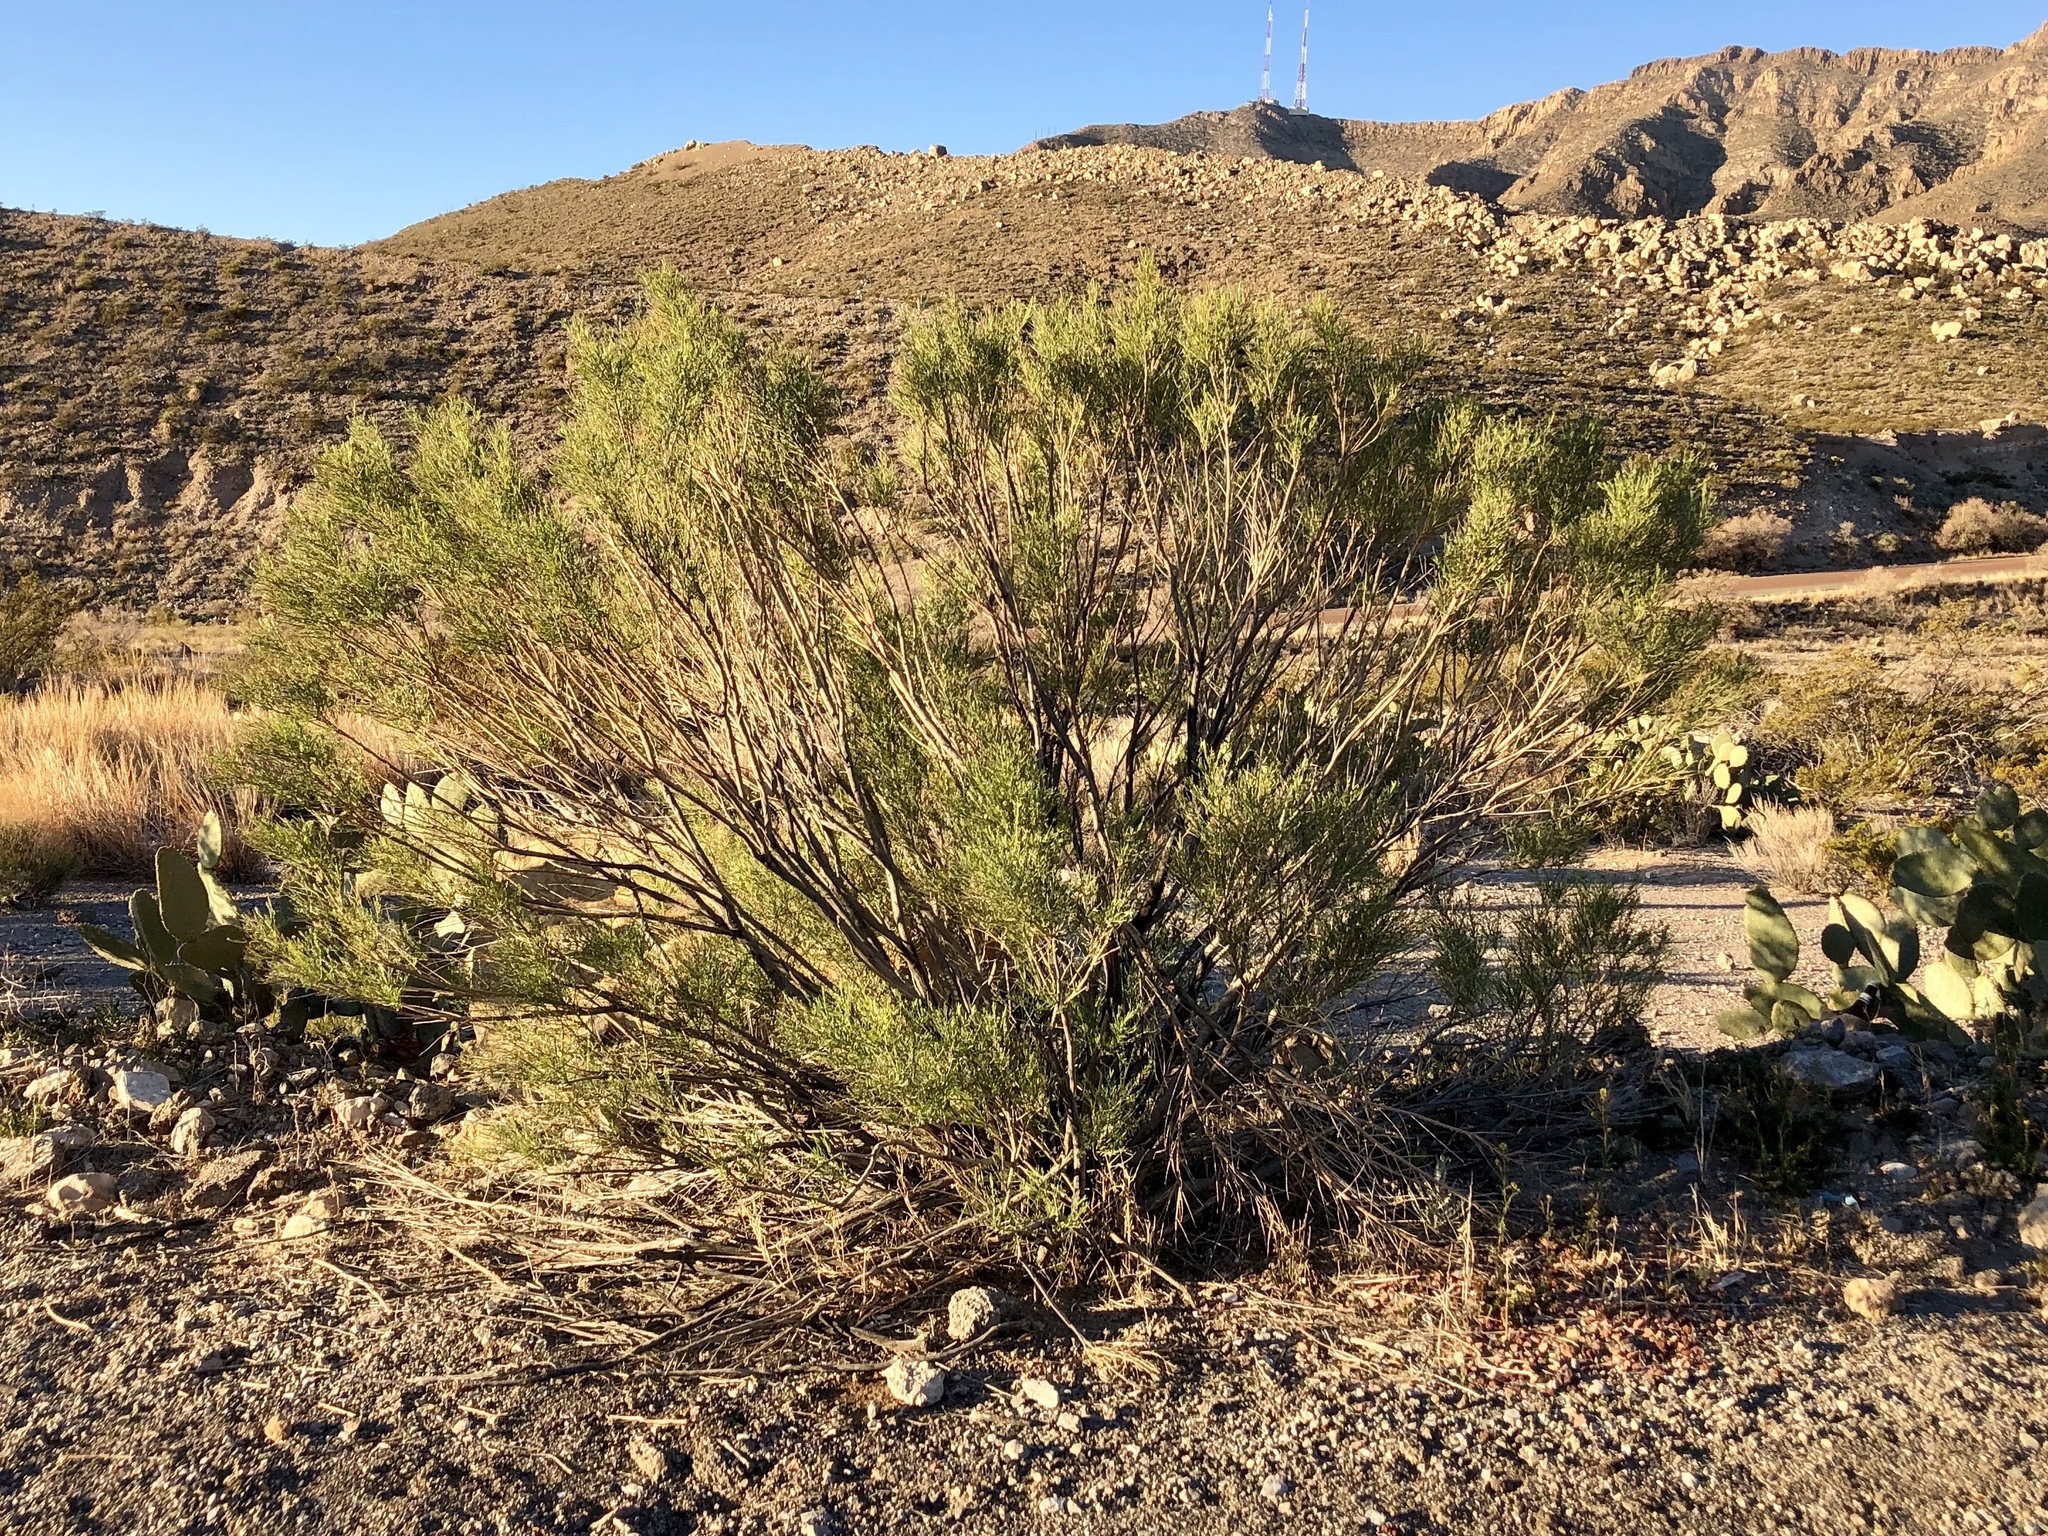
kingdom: Plantae
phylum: Tracheophyta
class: Magnoliopsida
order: Asterales
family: Asteraceae
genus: Baccharis
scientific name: Baccharis sarothroides
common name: Desert-broom
